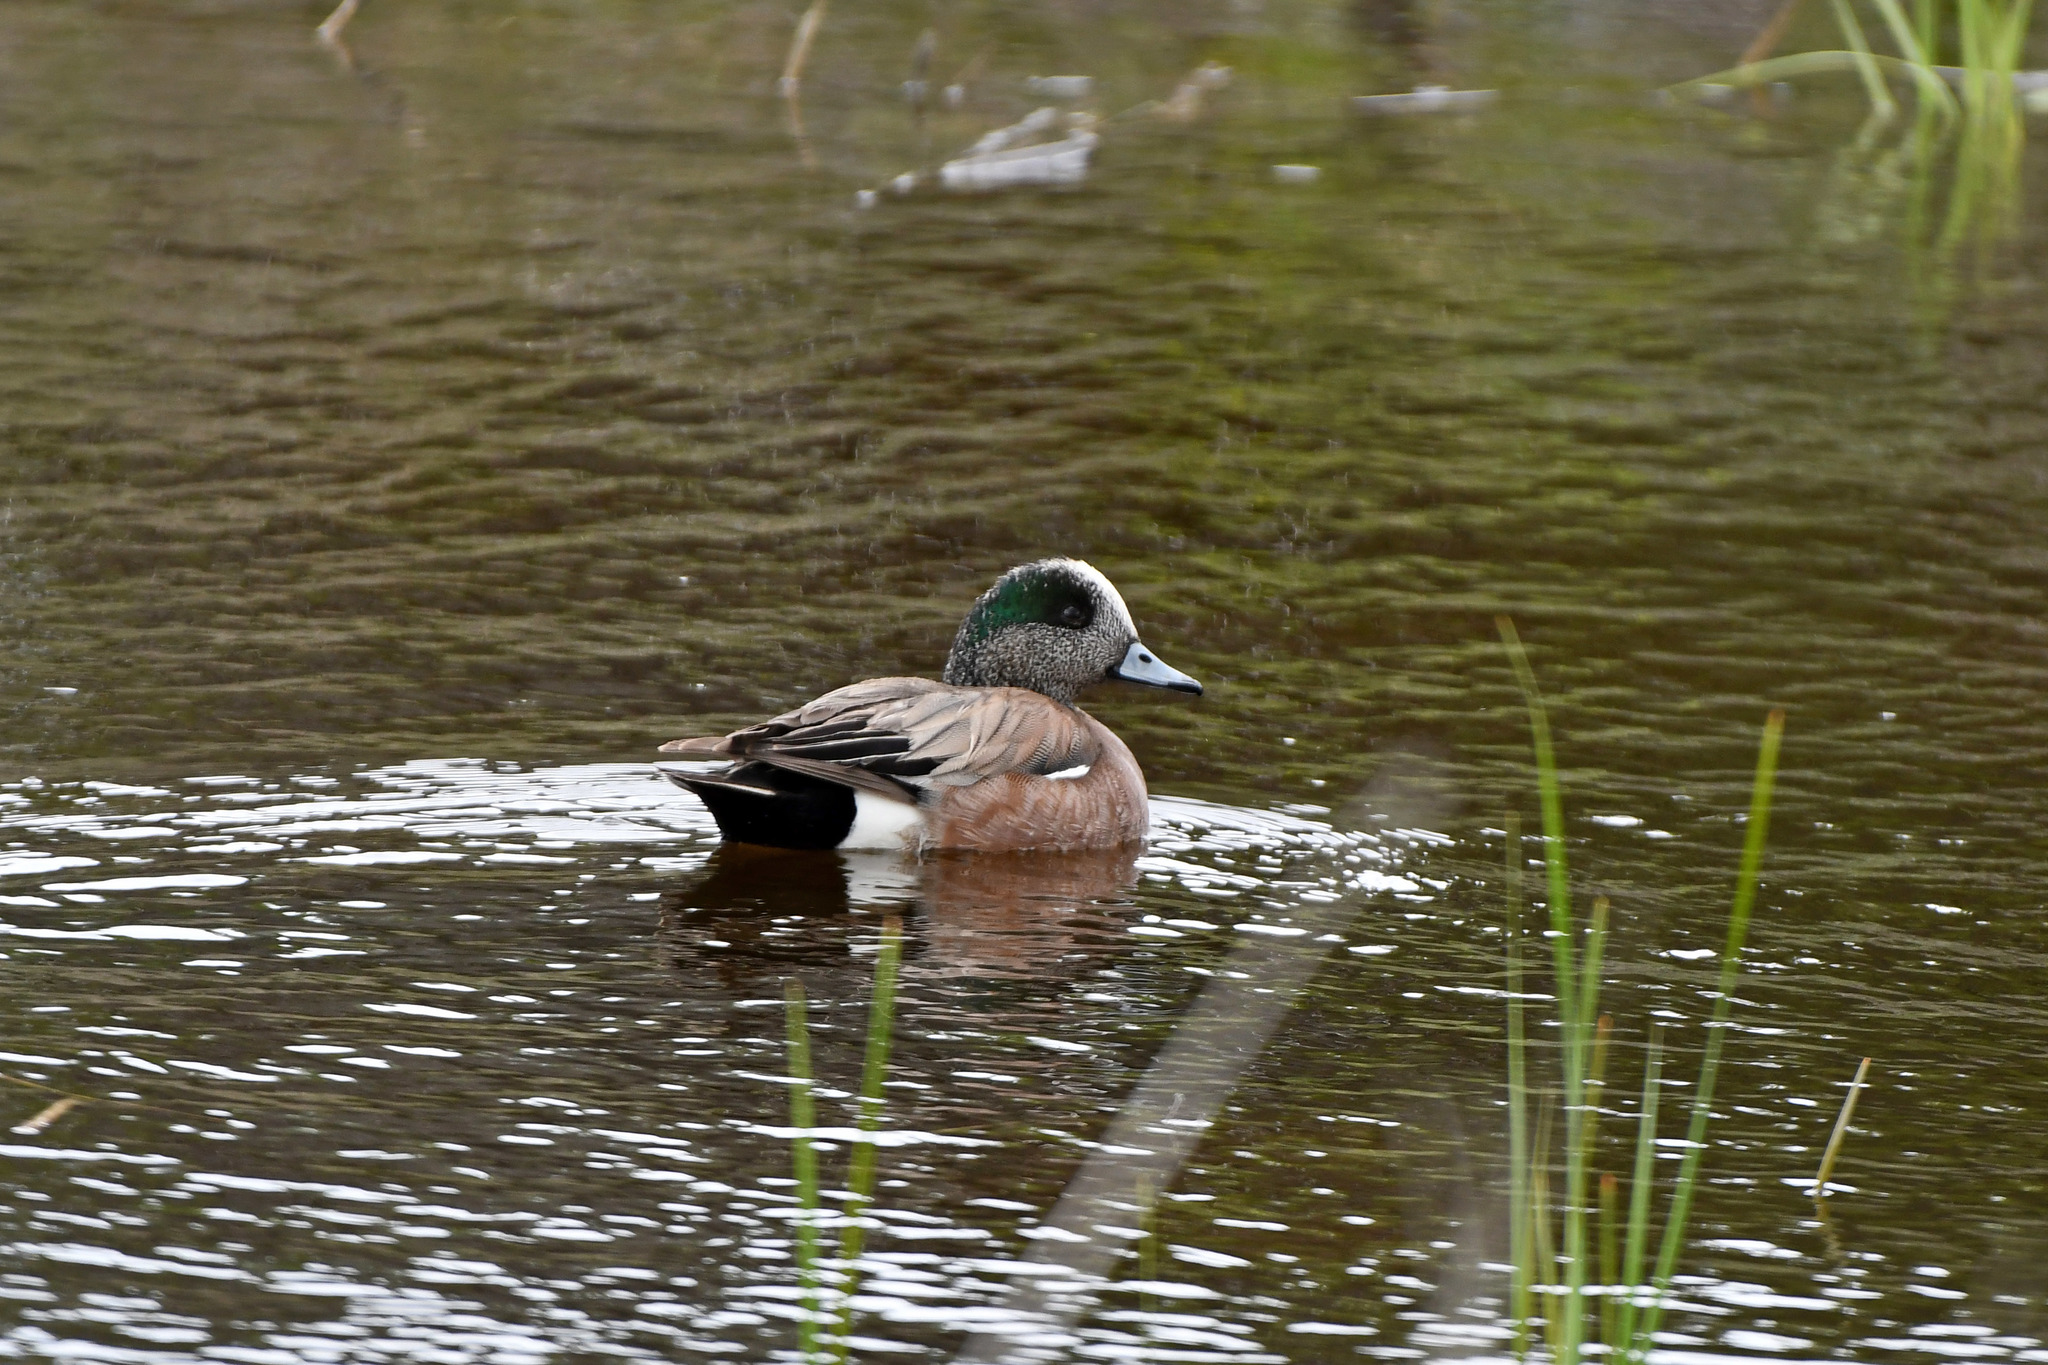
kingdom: Animalia
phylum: Chordata
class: Aves
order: Anseriformes
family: Anatidae
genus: Mareca
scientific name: Mareca americana
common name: American wigeon
